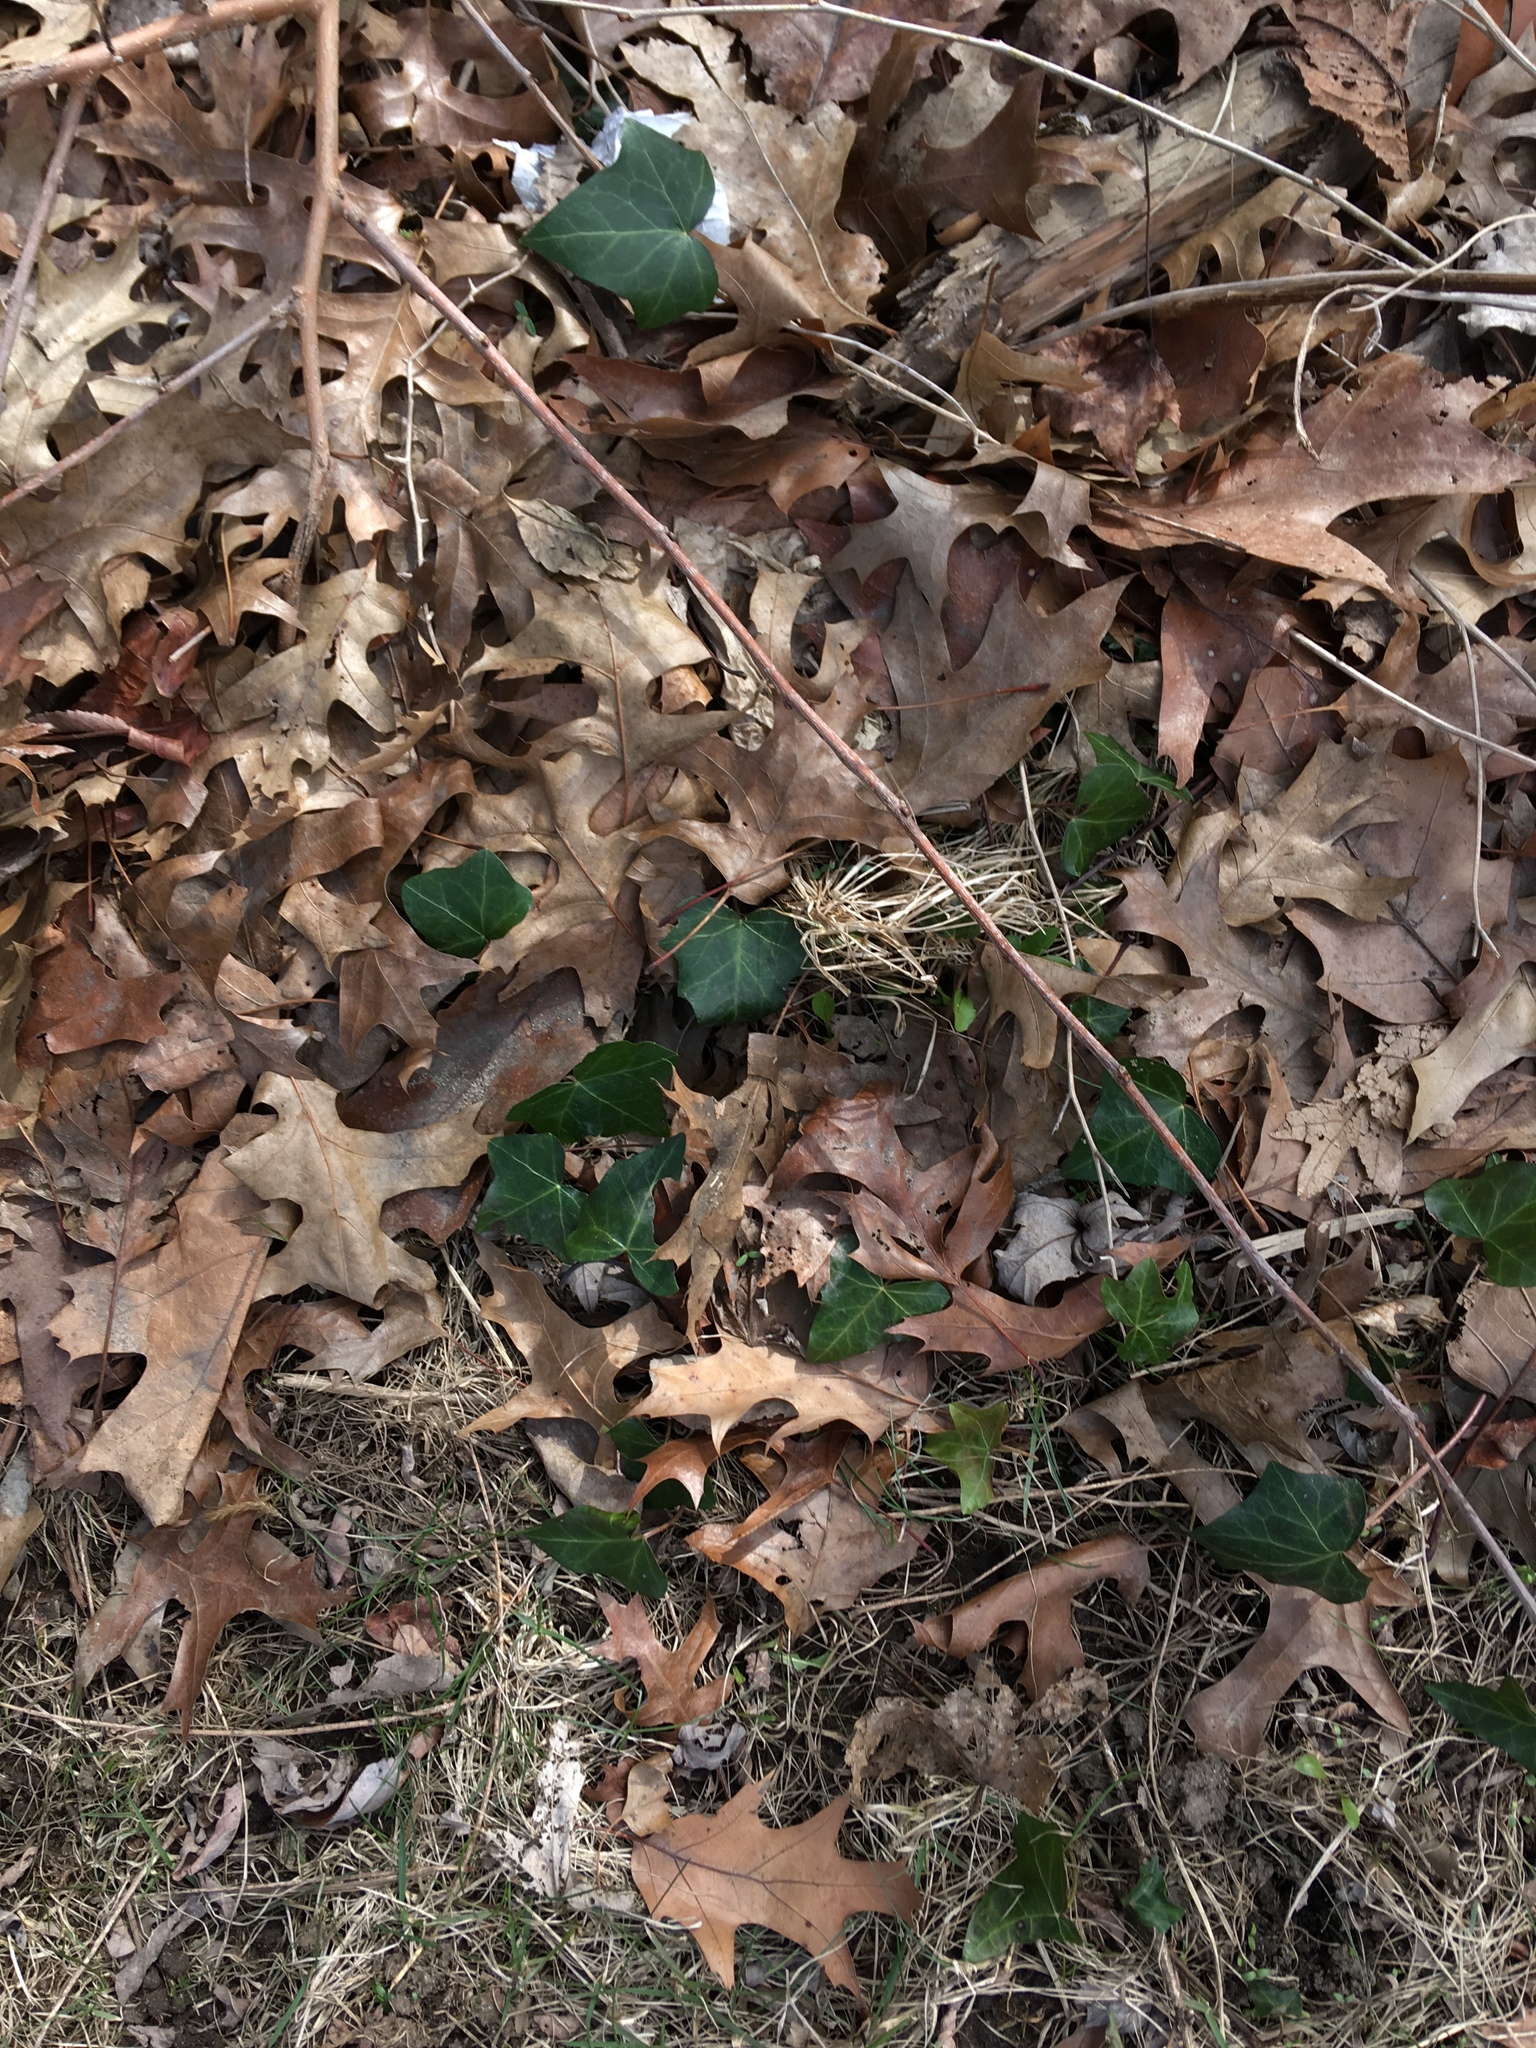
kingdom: Plantae
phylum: Tracheophyta
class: Magnoliopsida
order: Apiales
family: Araliaceae
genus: Hedera
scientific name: Hedera helix
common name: Ivy
